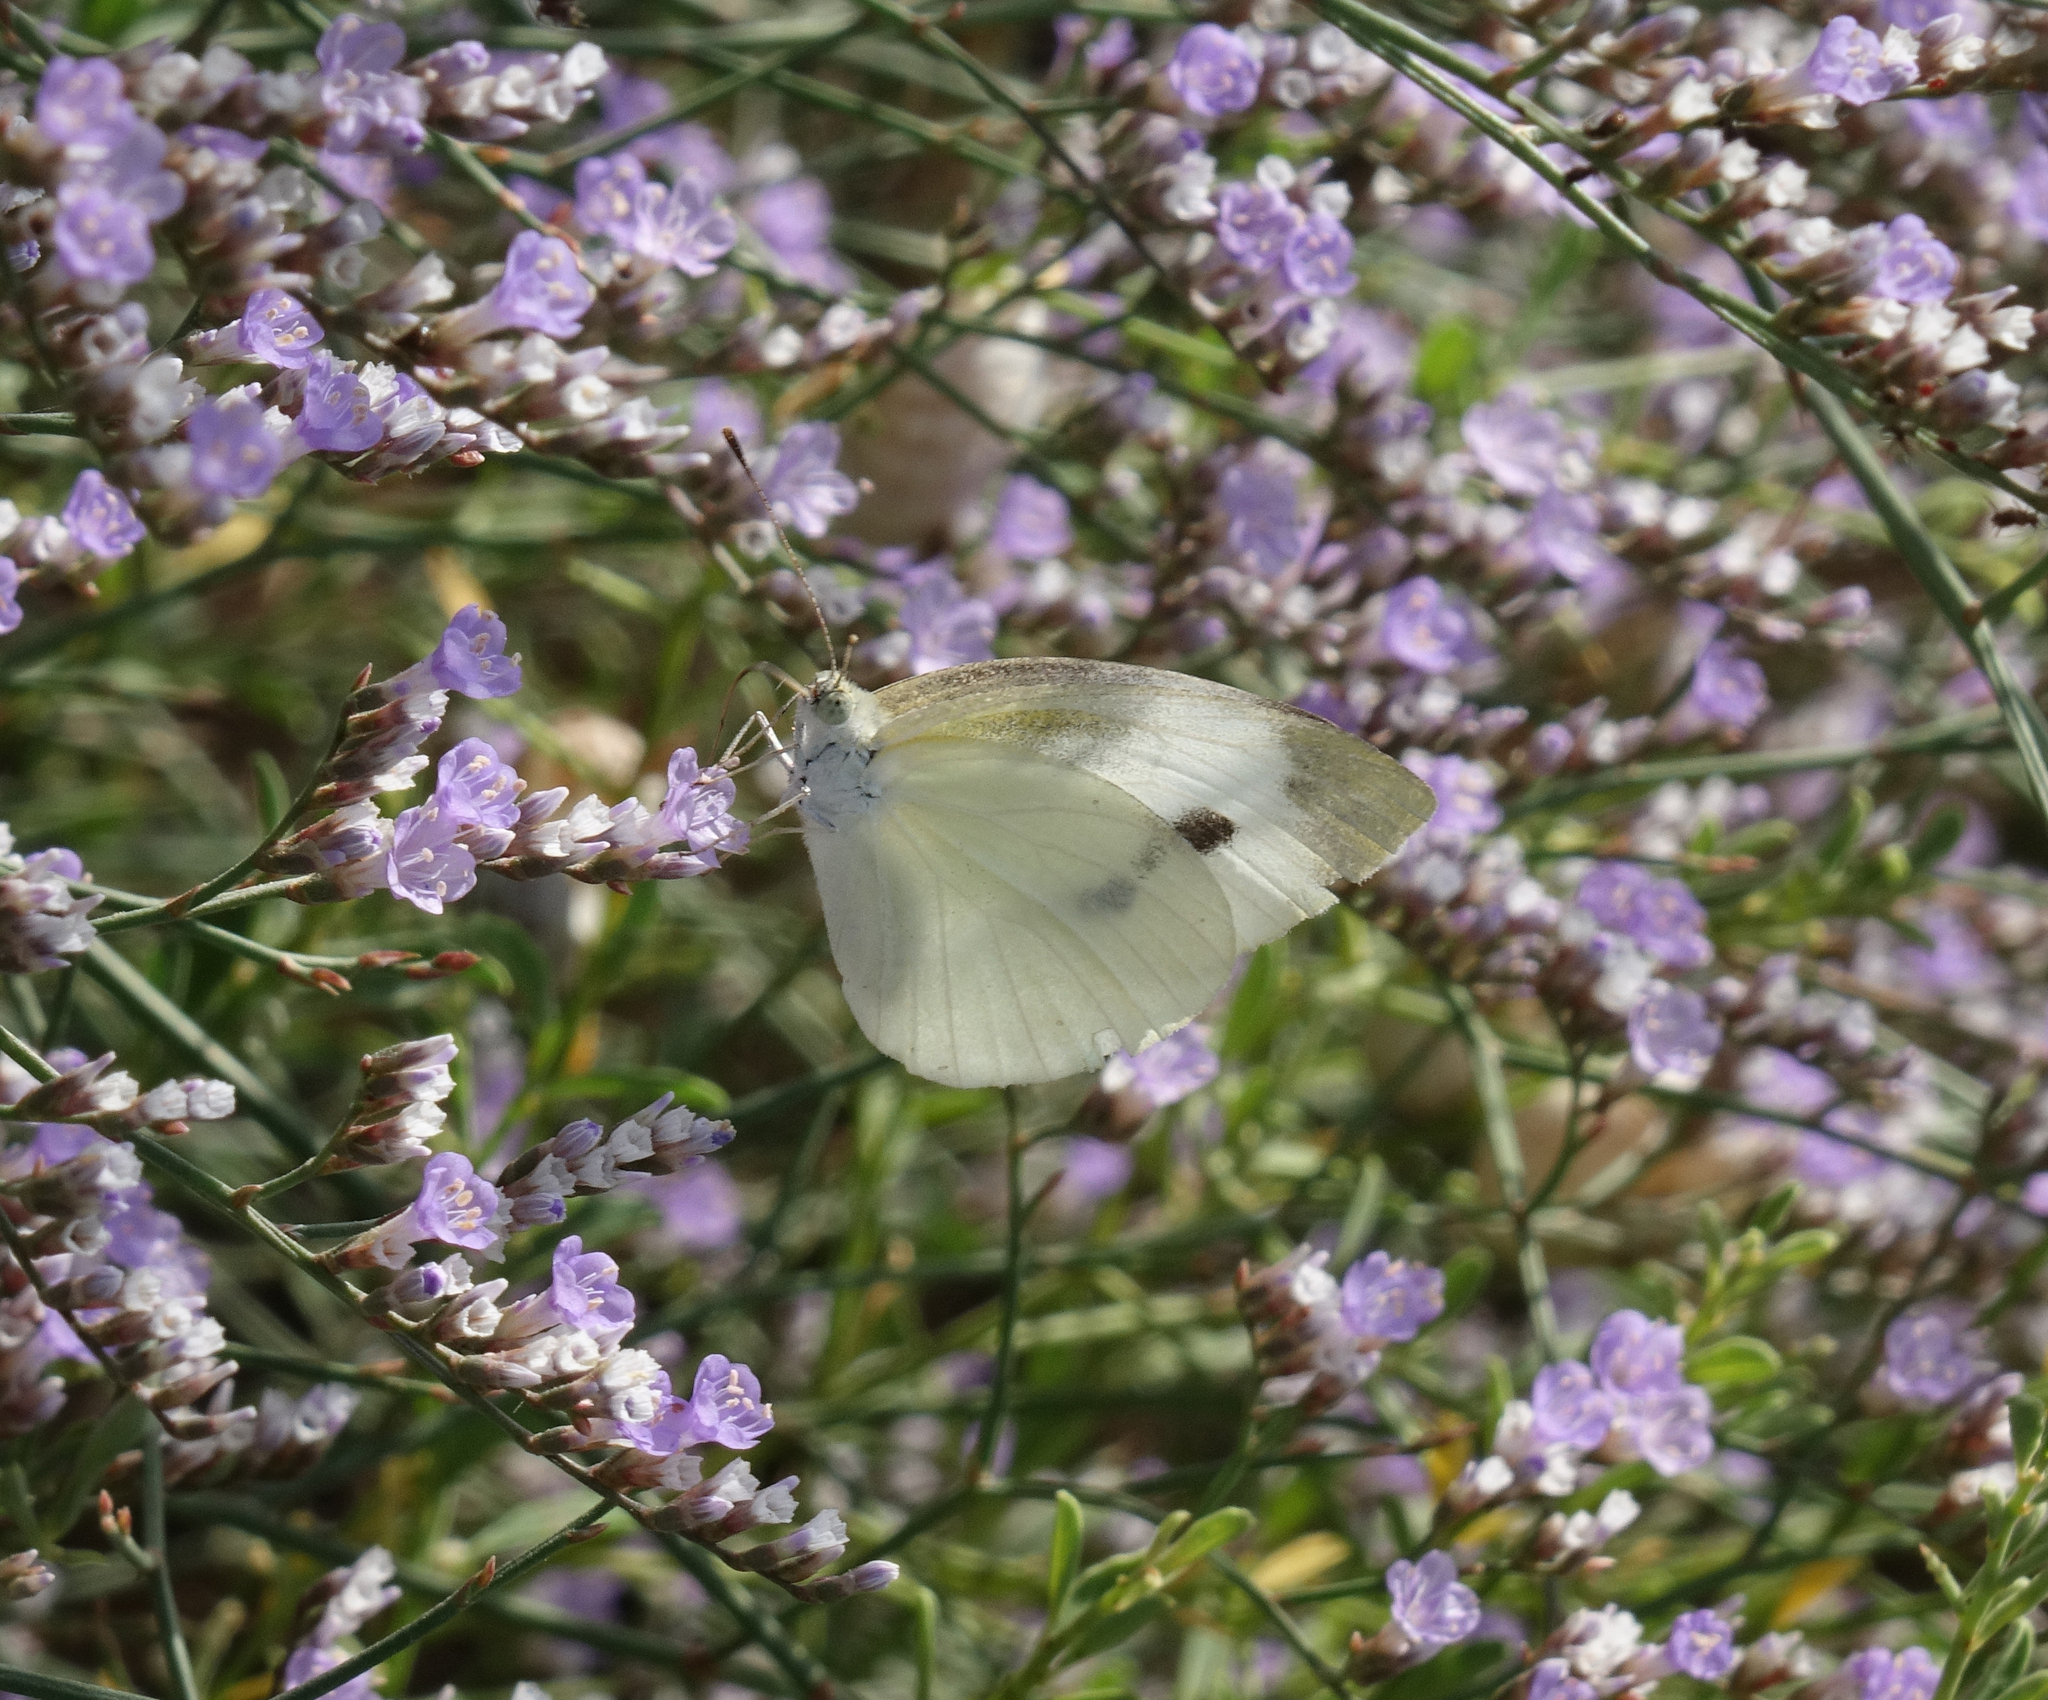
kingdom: Animalia
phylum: Arthropoda
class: Insecta
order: Lepidoptera
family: Pieridae
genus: Pieris
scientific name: Pieris rapae
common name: Small white
